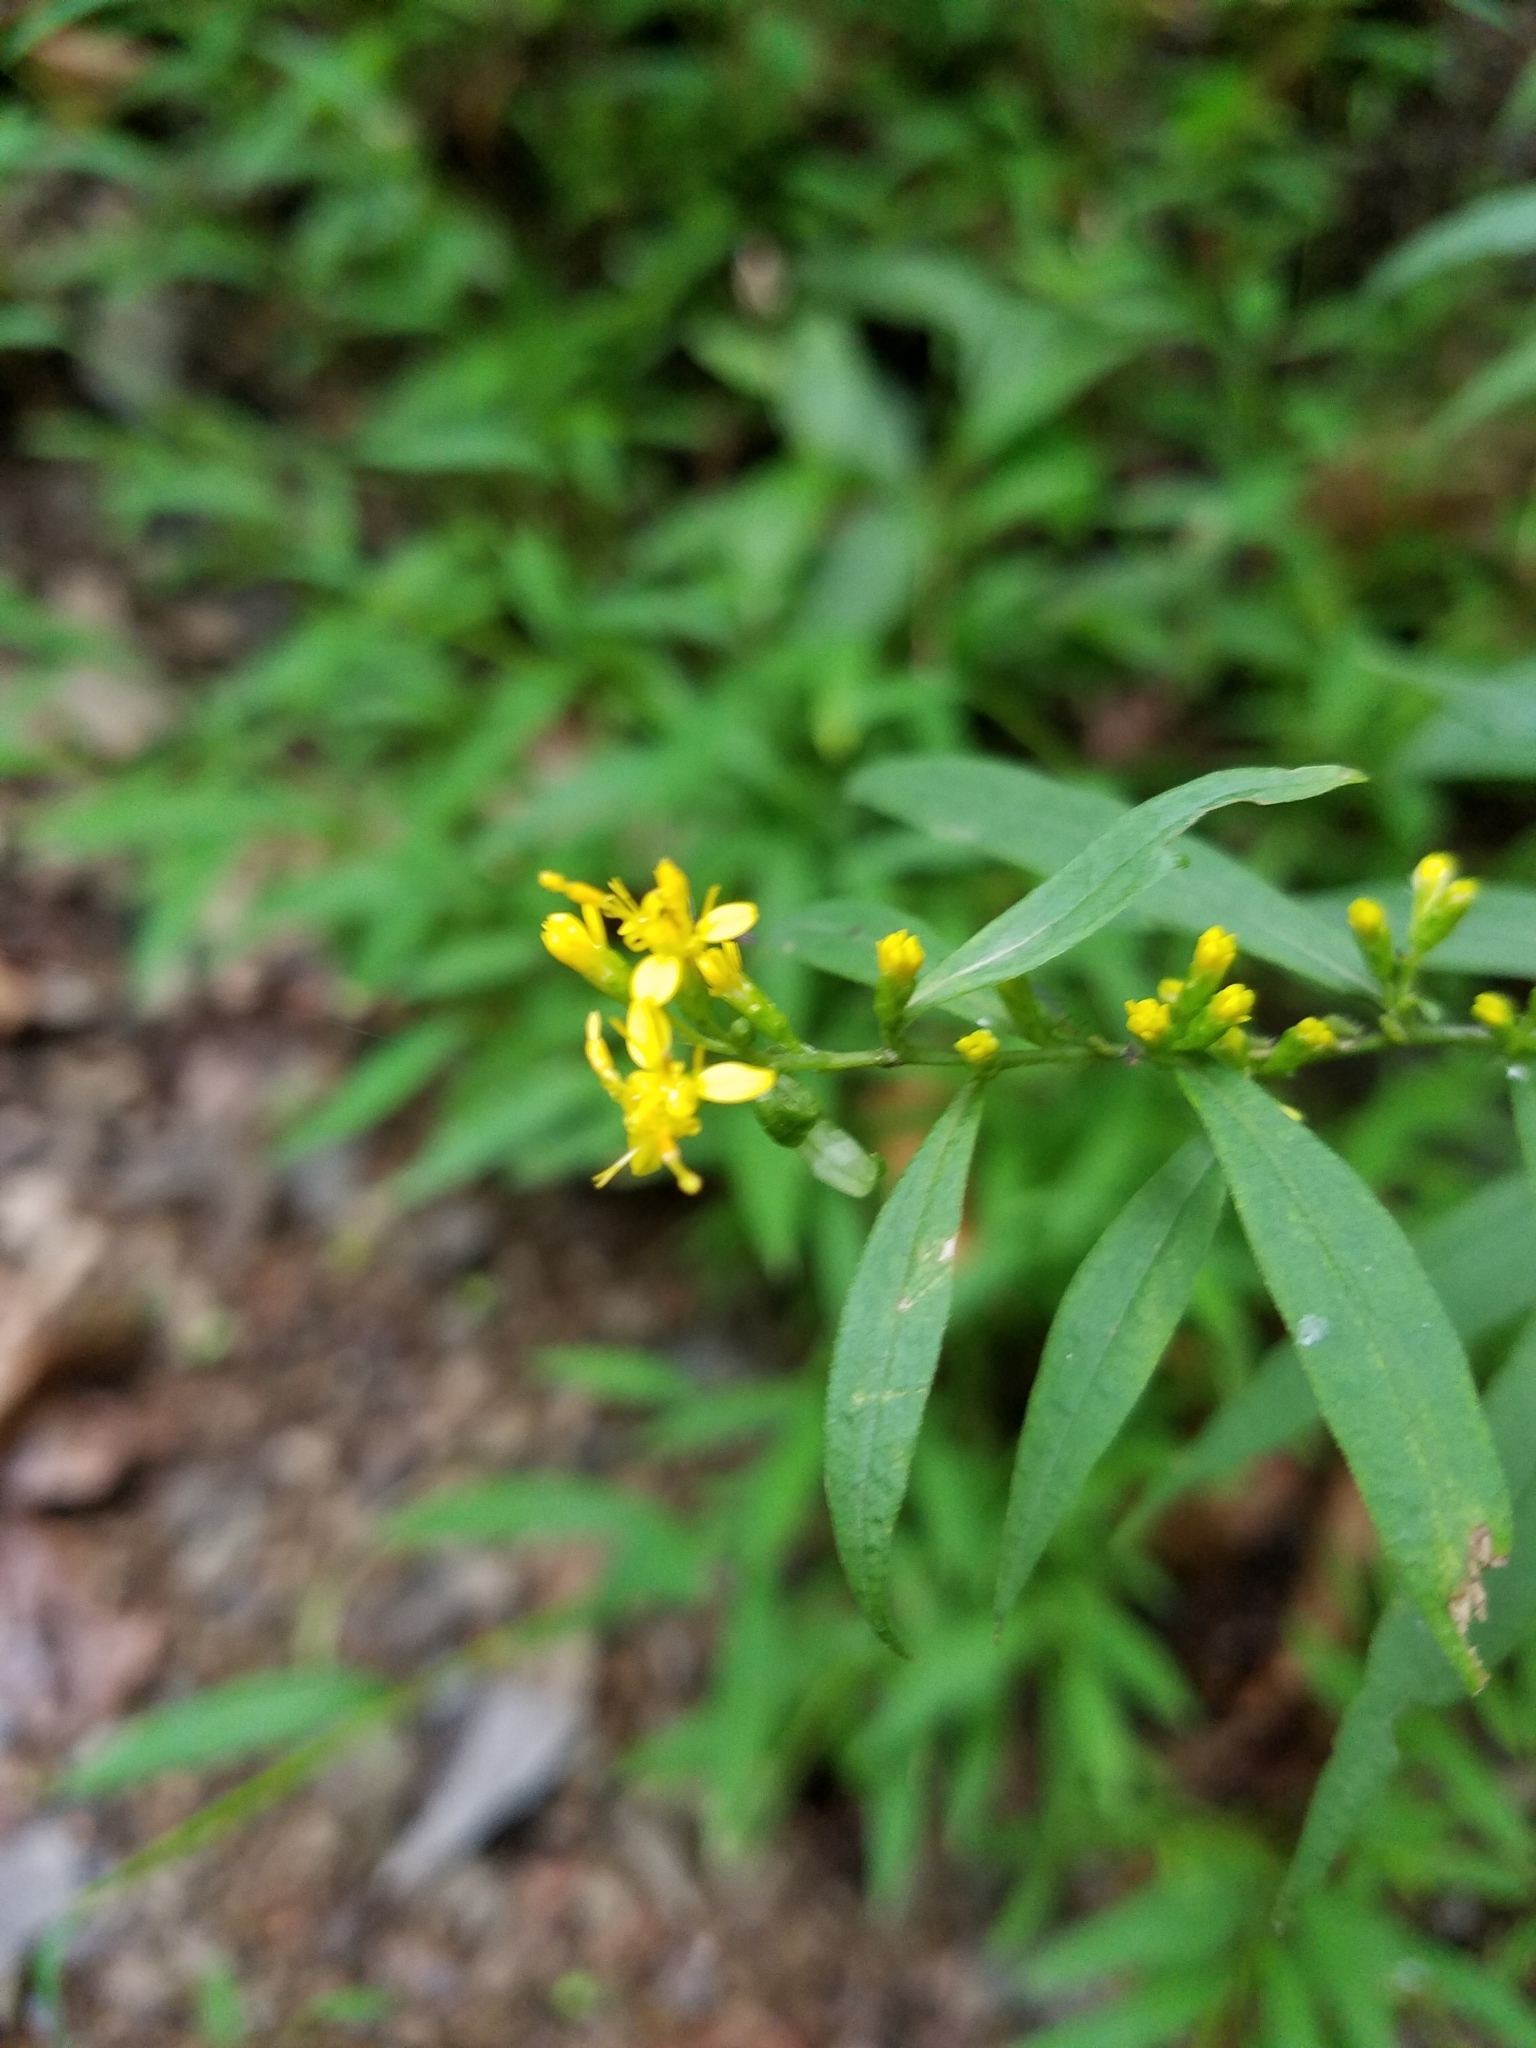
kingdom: Plantae
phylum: Tracheophyta
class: Magnoliopsida
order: Asterales
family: Asteraceae
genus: Solidago
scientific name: Solidago caesia
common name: Woodland goldenrod
